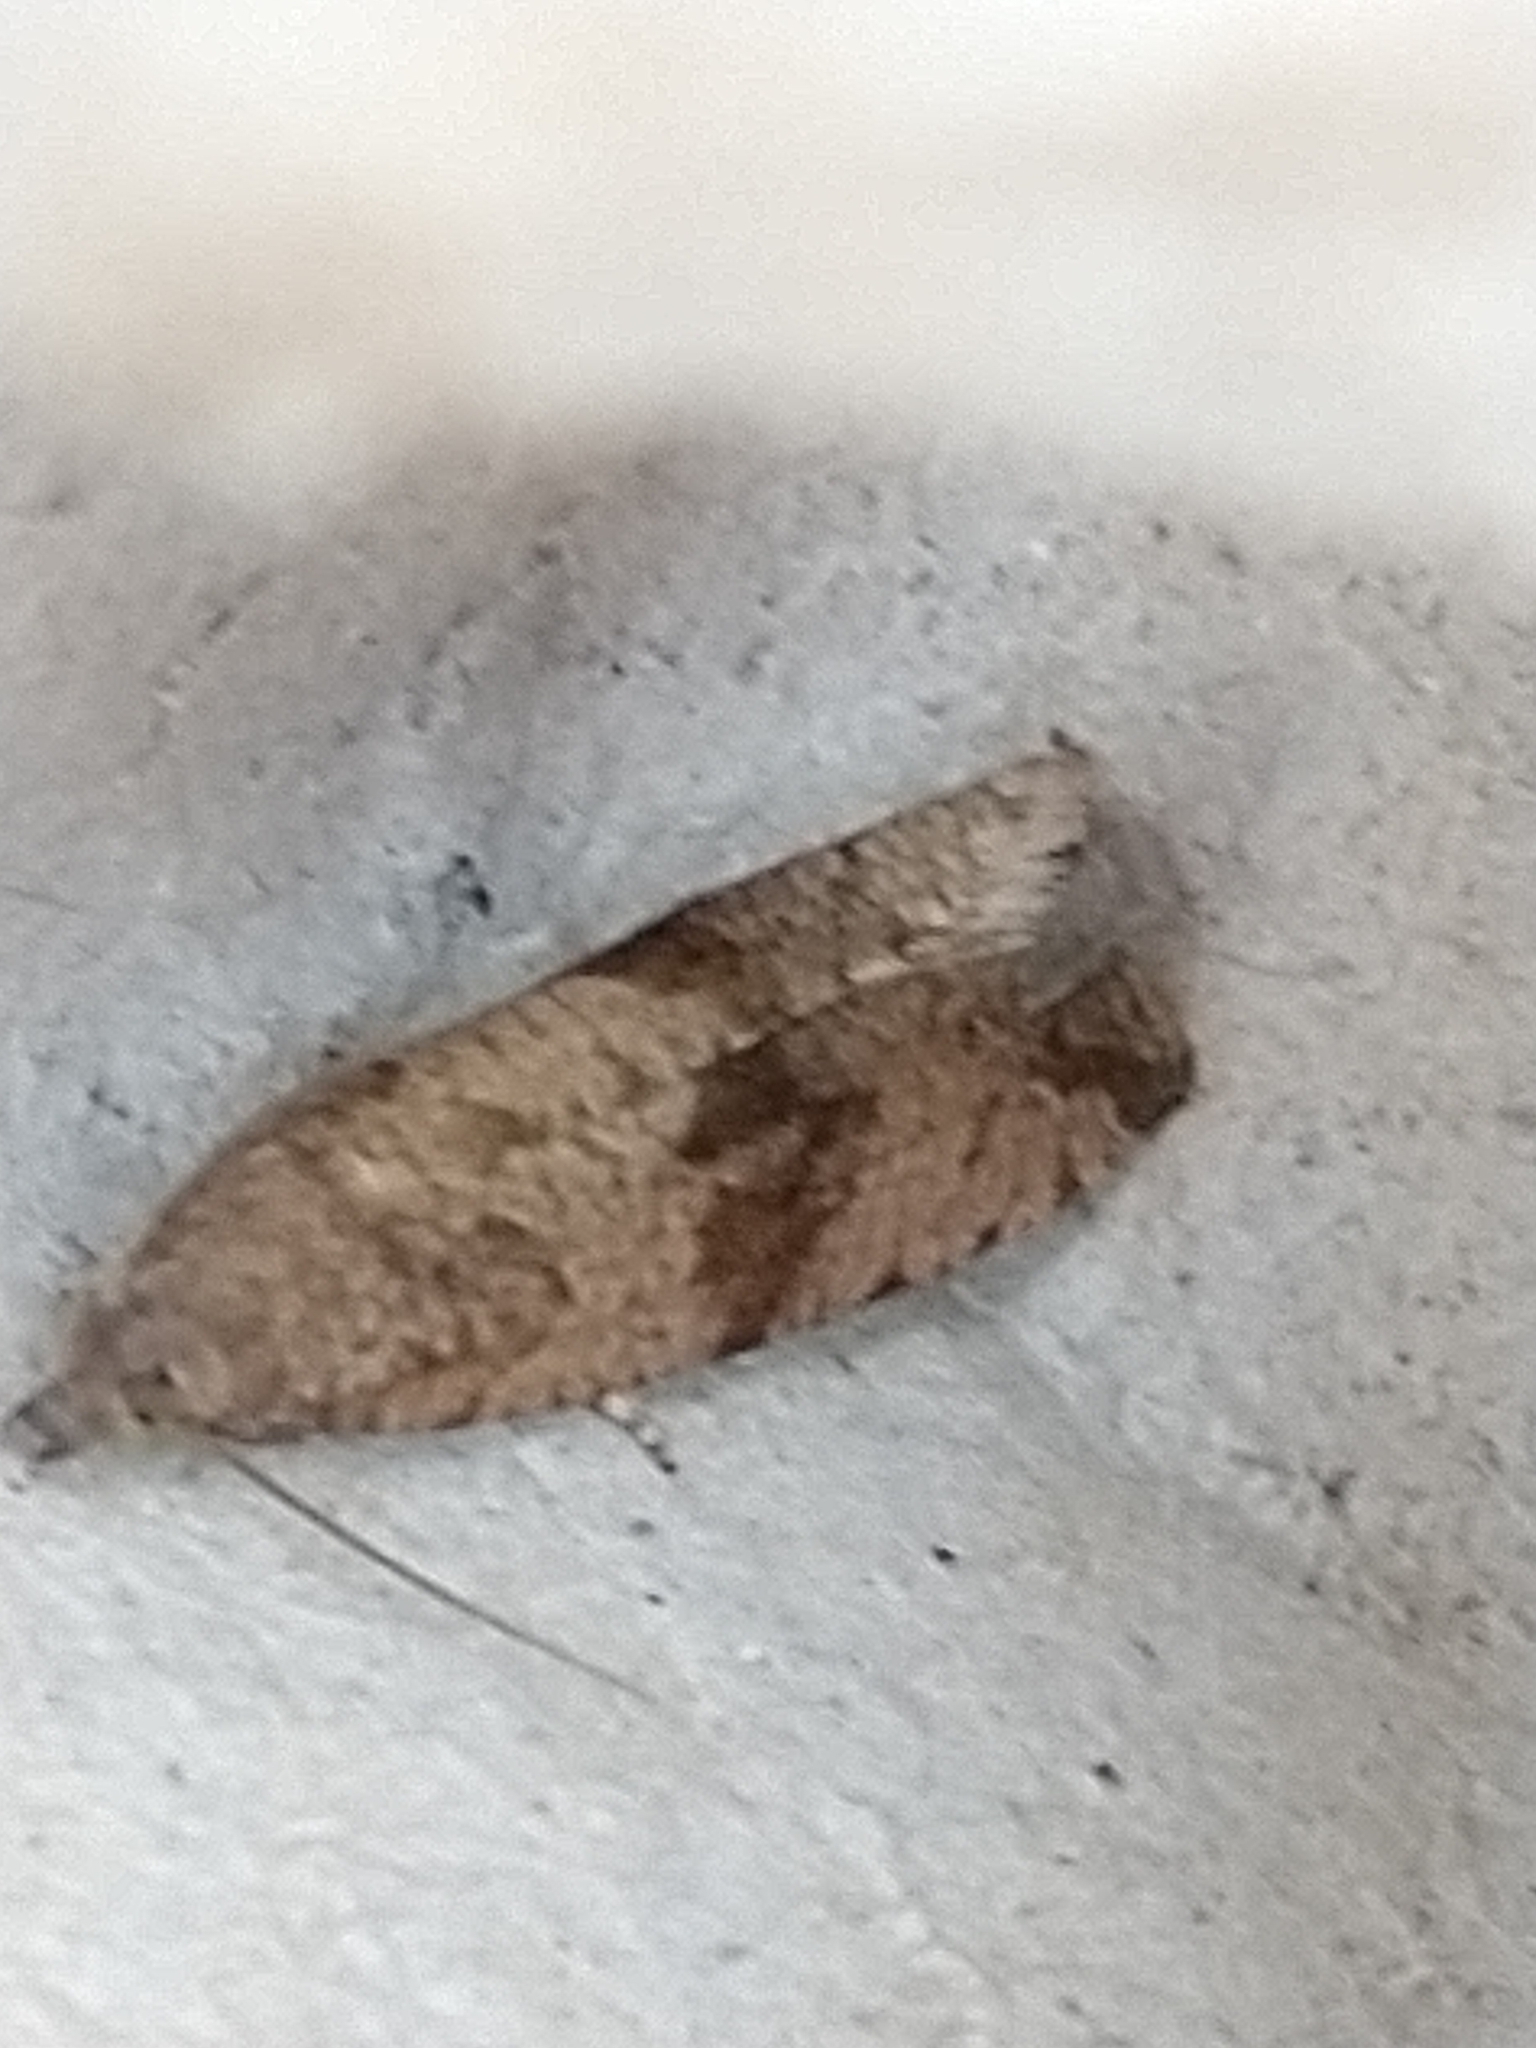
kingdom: Animalia
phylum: Arthropoda
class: Insecta
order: Lepidoptera
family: Tortricidae
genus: Celypha
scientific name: Celypha striana
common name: Barred marble
